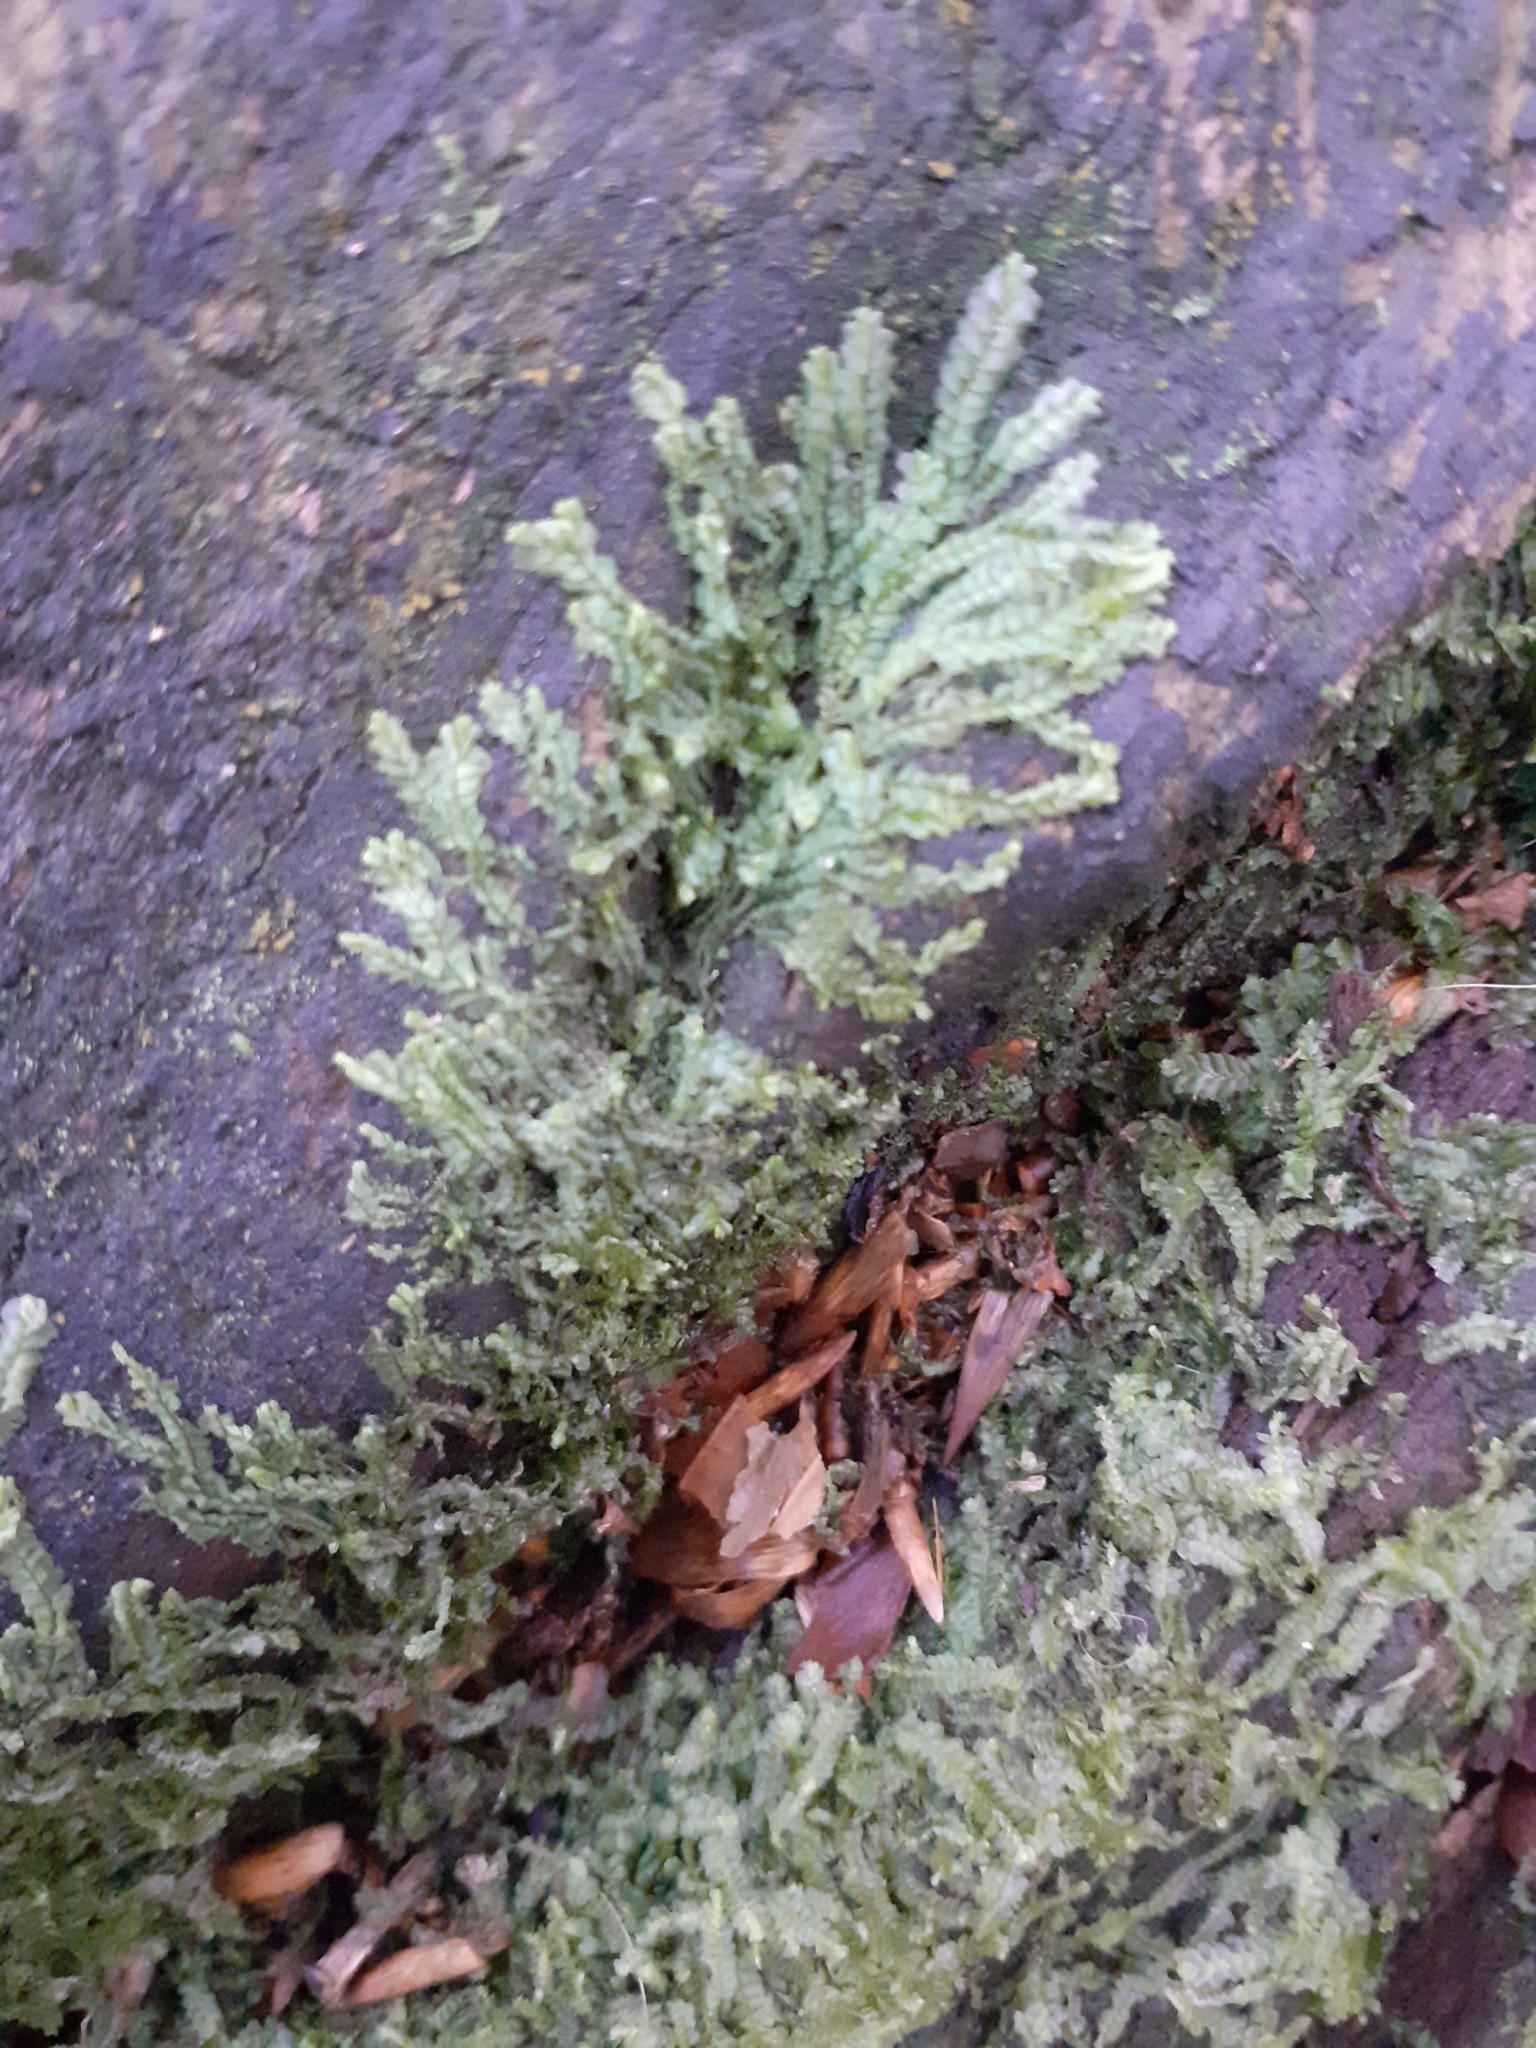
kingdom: Plantae
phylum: Marchantiophyta
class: Jungermanniopsida
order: Jungermanniales
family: Lophocoleaceae
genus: Lophocolea
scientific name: Lophocolea semiteres
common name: Southern crestwort
